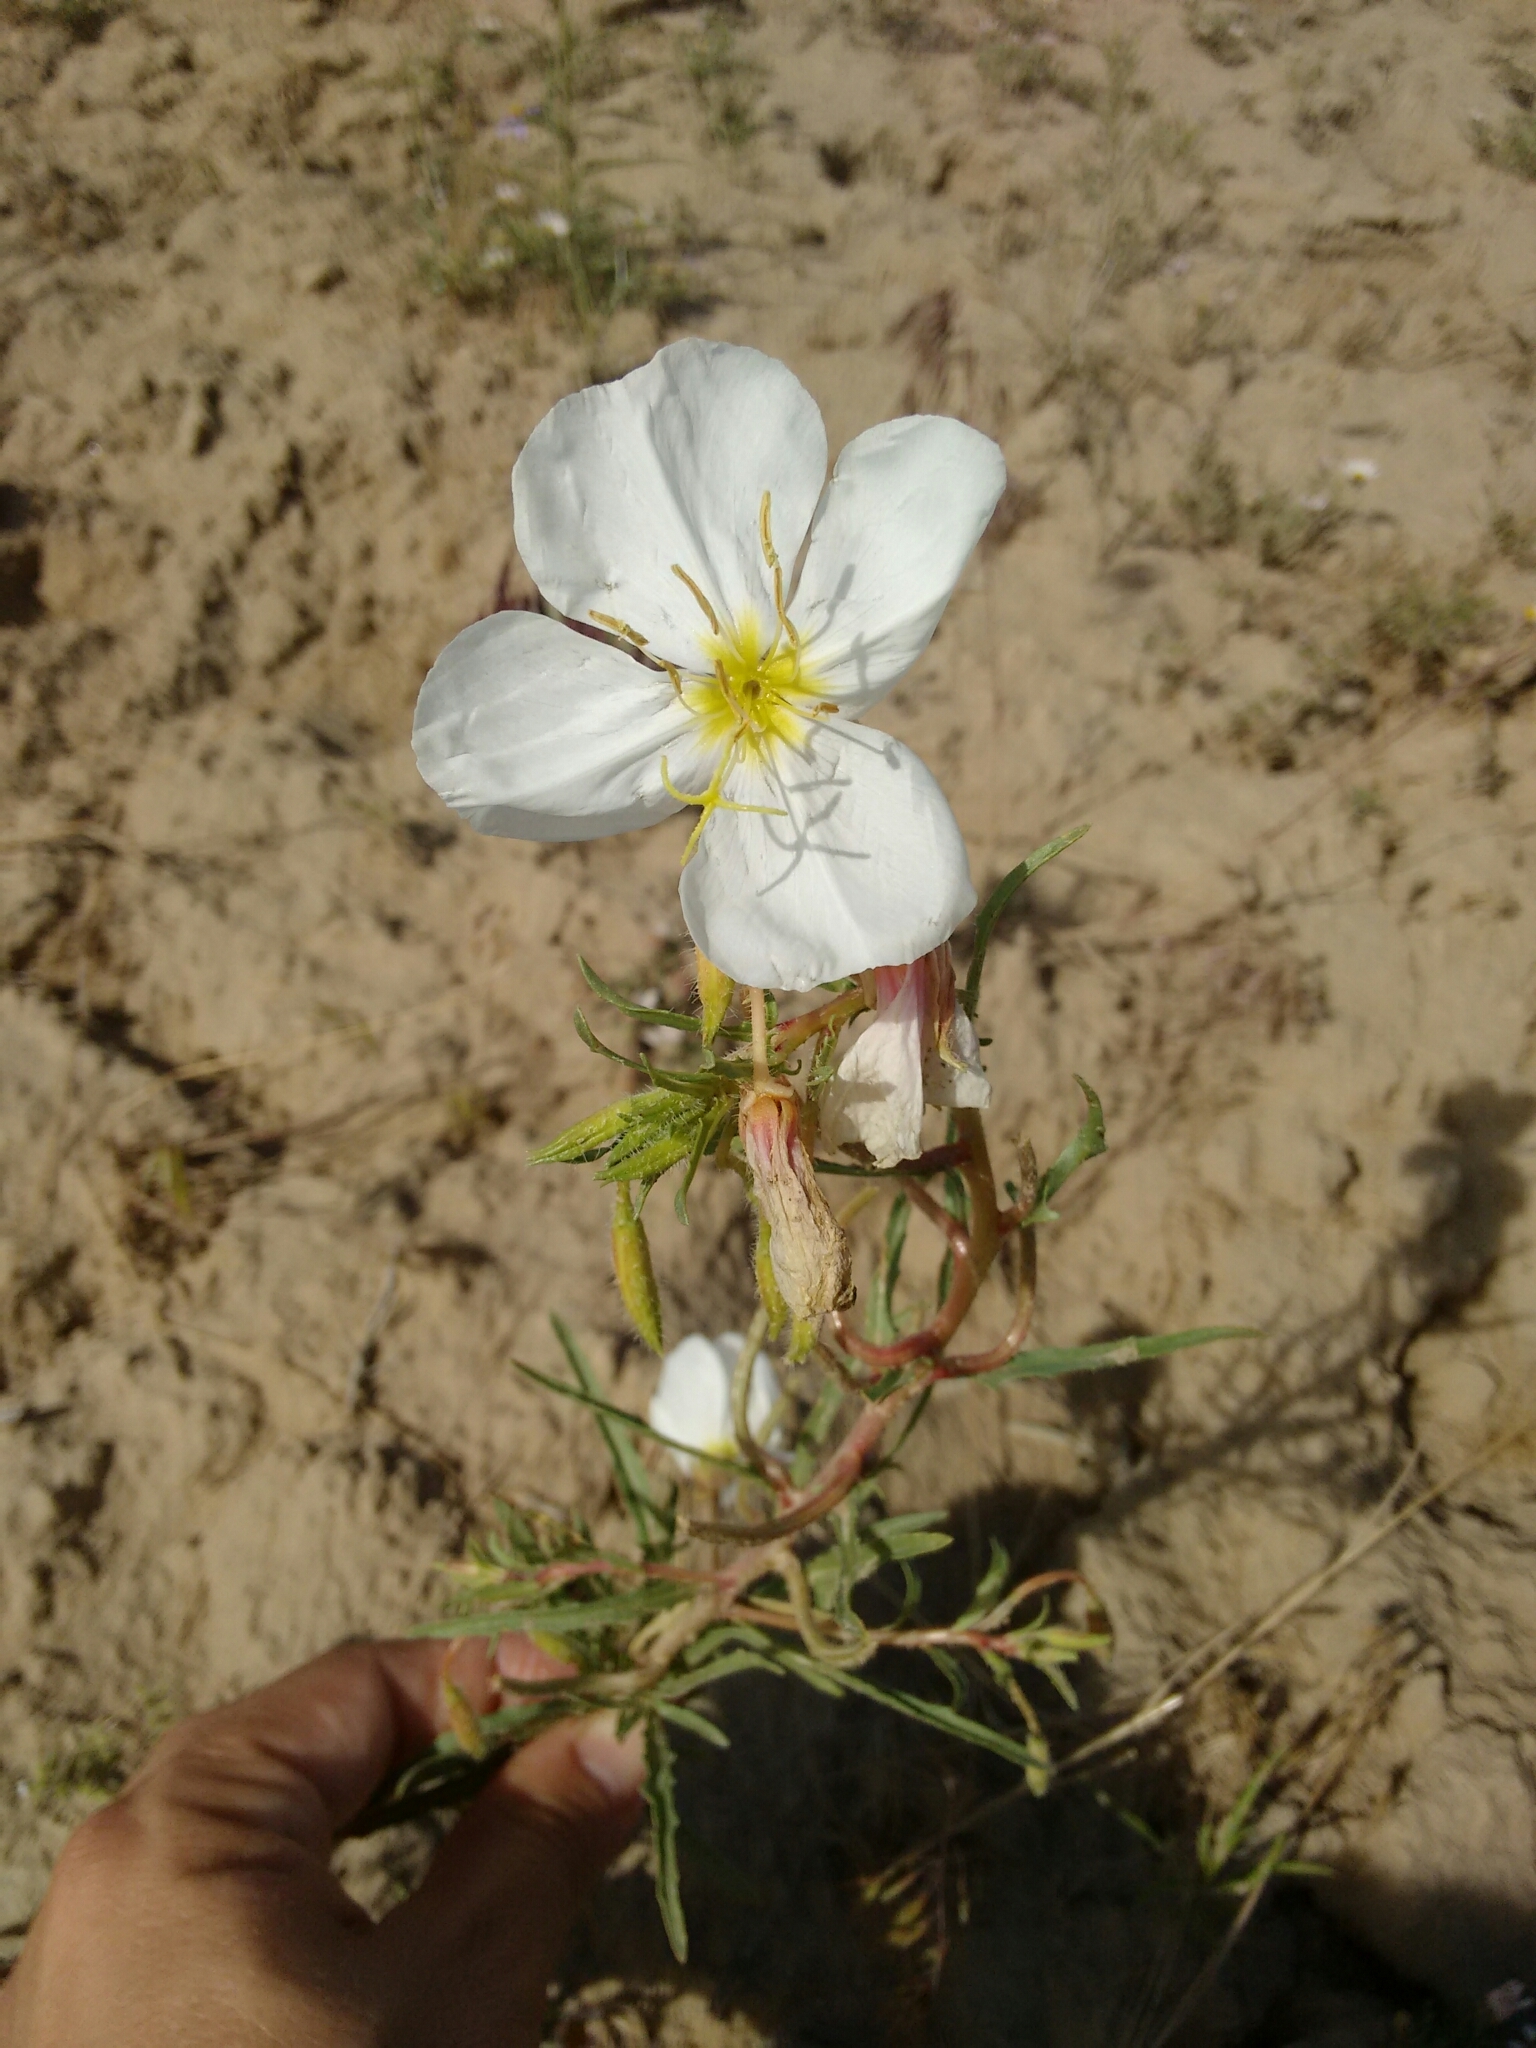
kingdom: Plantae
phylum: Tracheophyta
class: Magnoliopsida
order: Myrtales
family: Onagraceae
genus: Oenothera
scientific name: Oenothera pallida
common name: Pale evening-primrose
